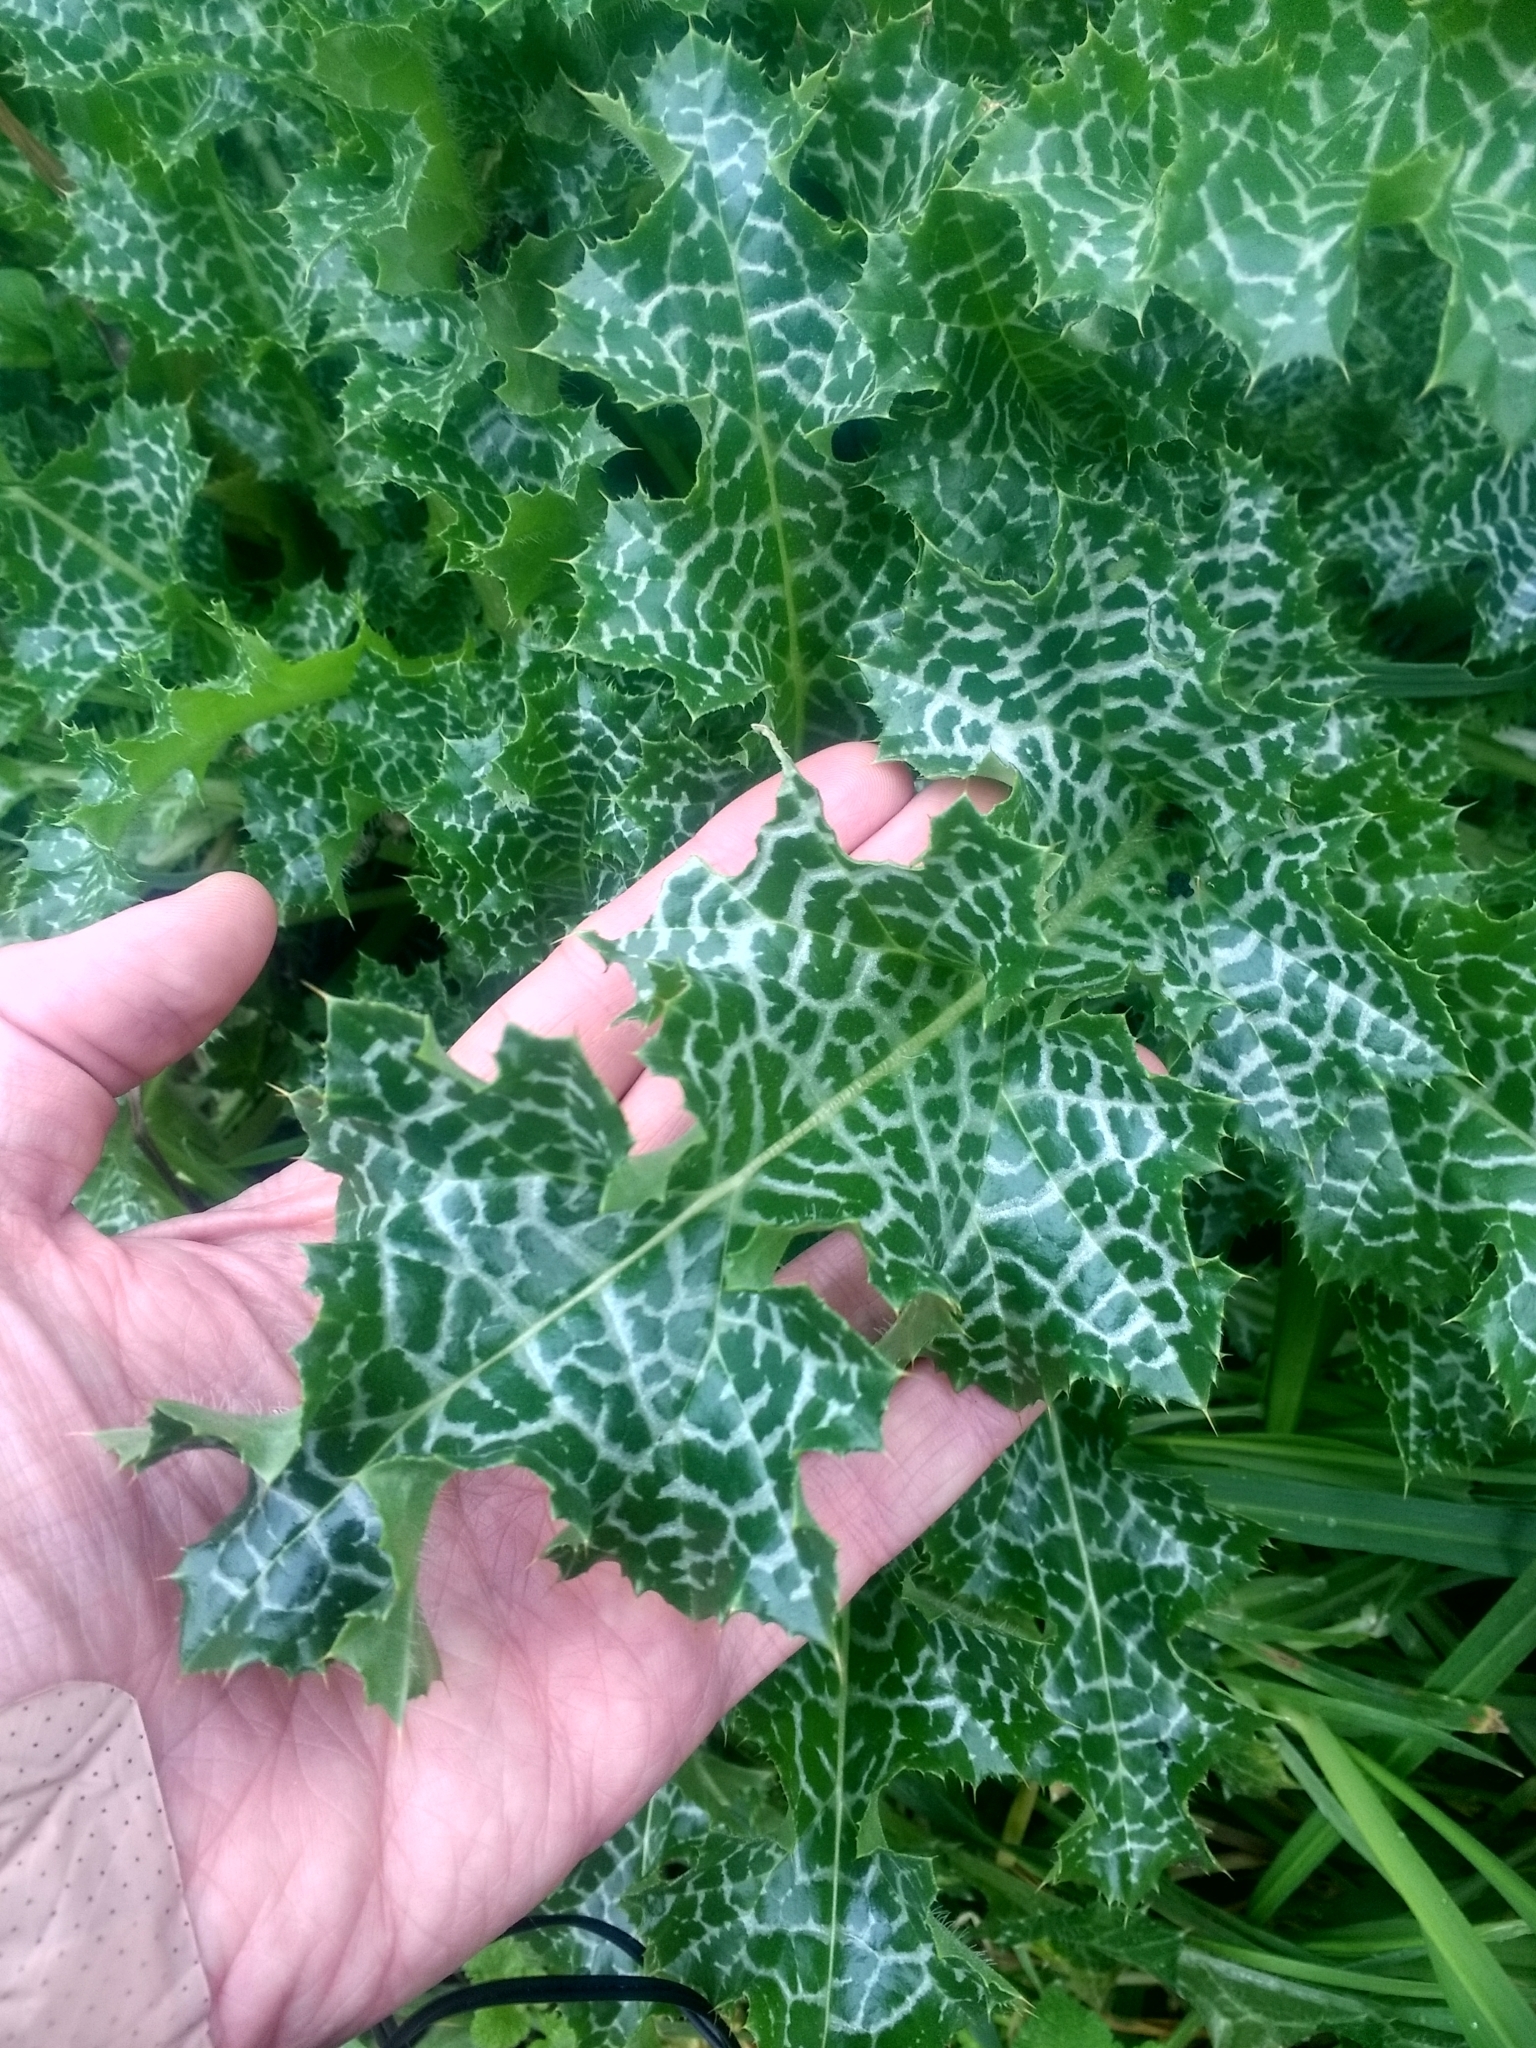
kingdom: Plantae
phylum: Tracheophyta
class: Magnoliopsida
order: Asterales
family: Asteraceae
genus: Silybum
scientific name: Silybum marianum
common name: Milk thistle
